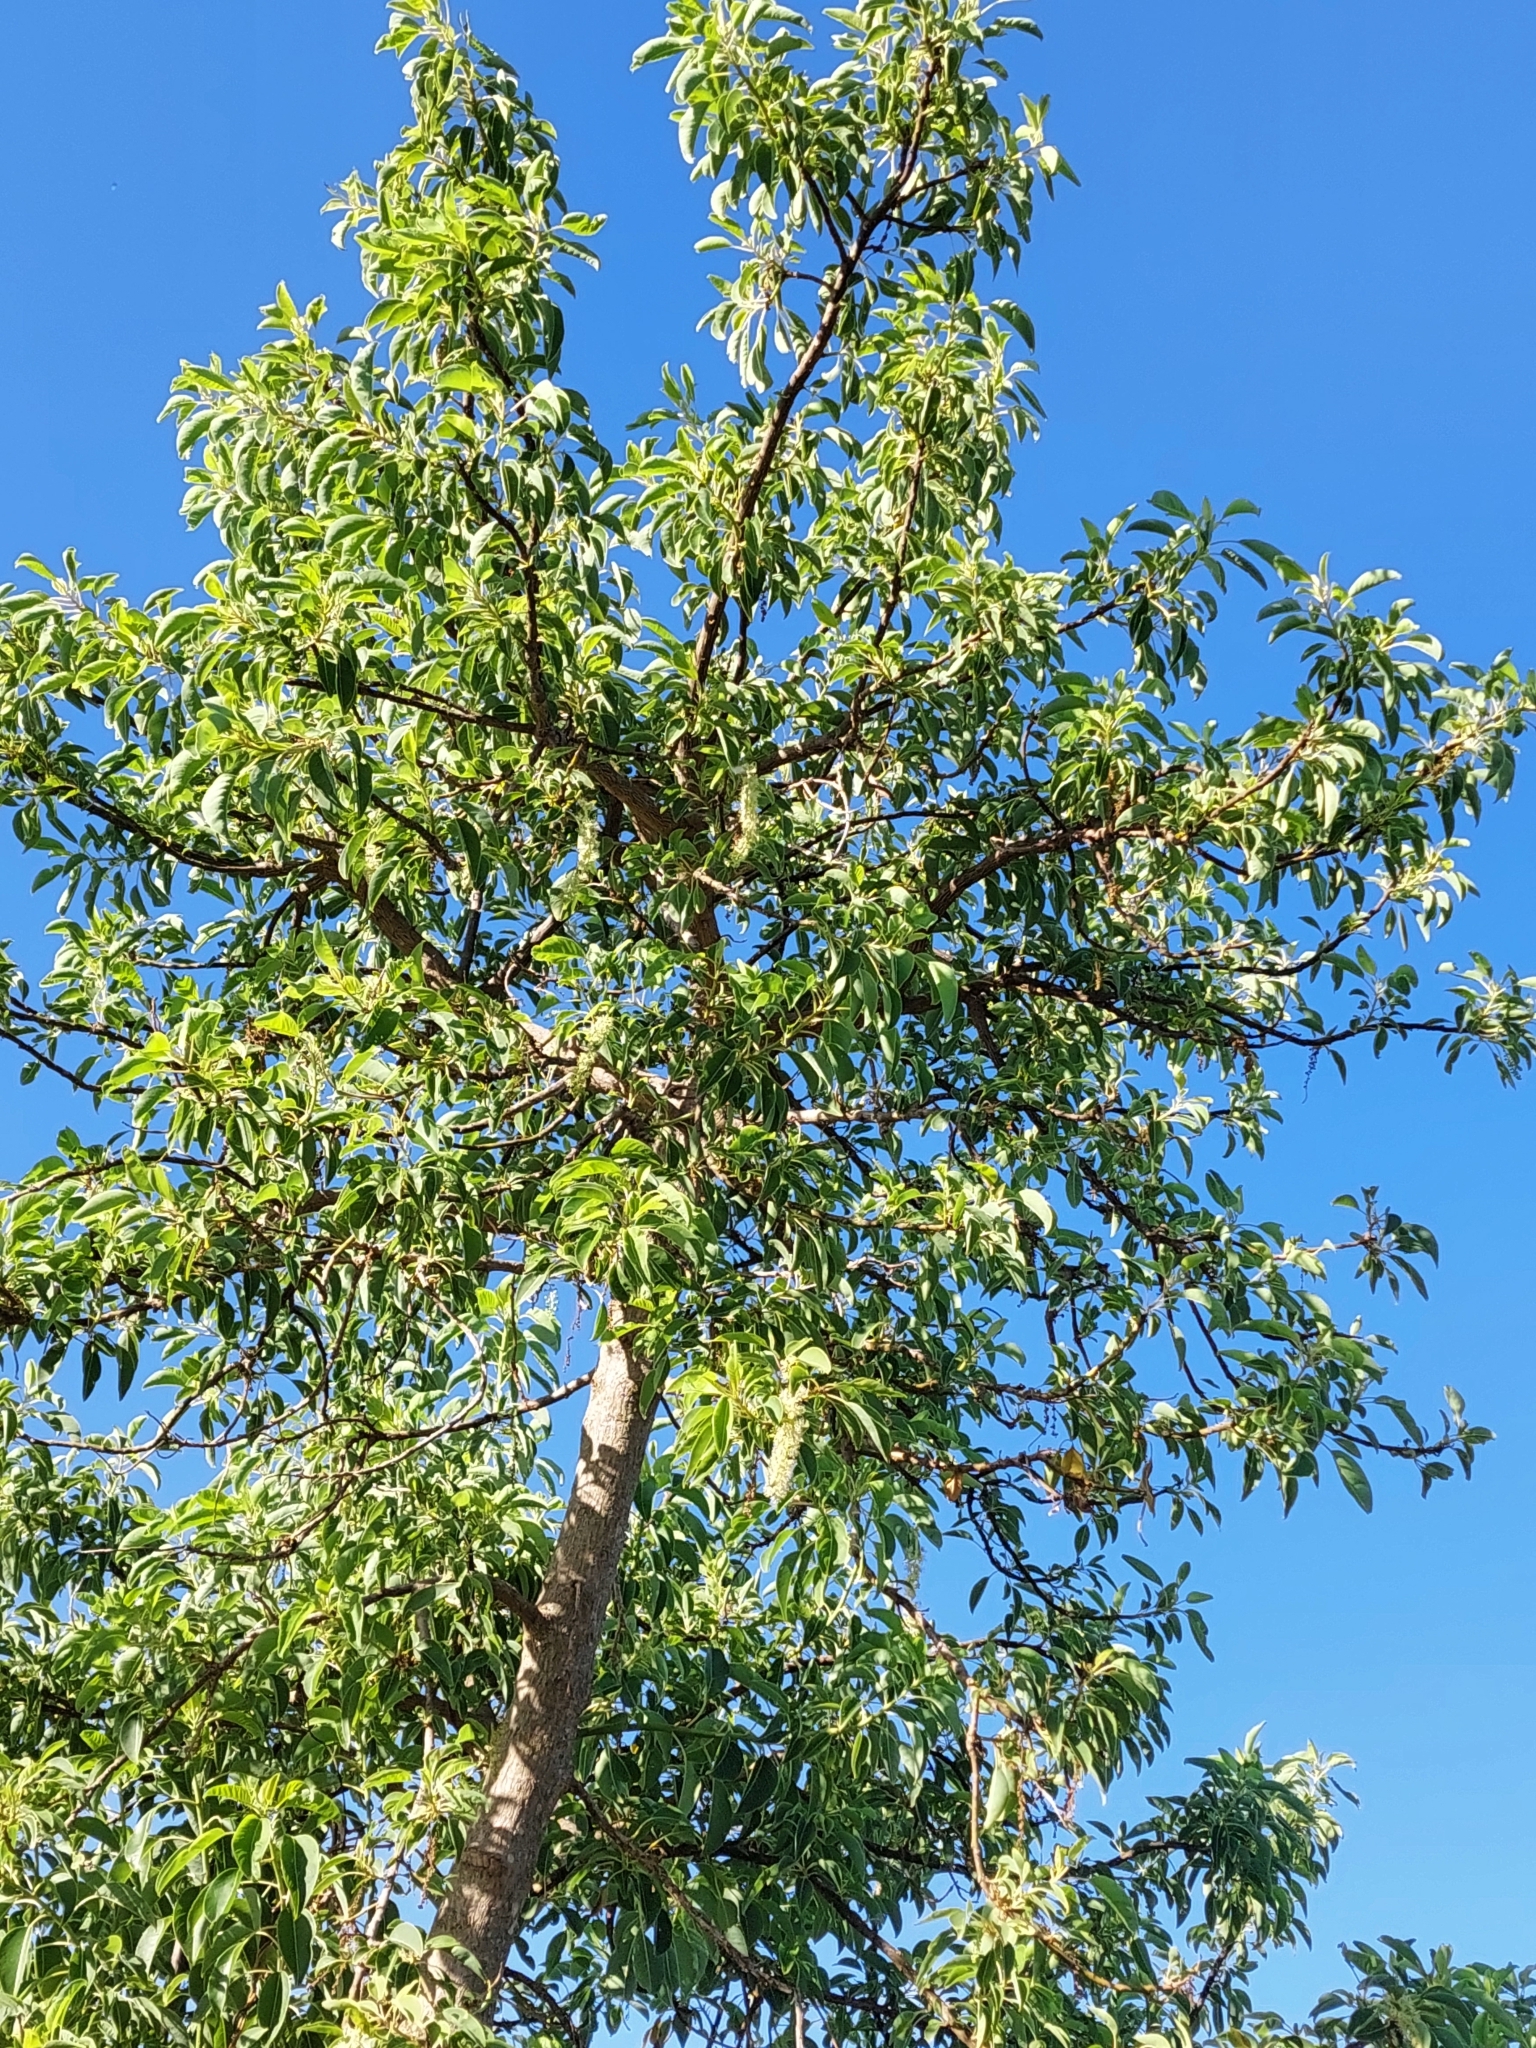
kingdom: Plantae
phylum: Tracheophyta
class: Magnoliopsida
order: Caryophyllales
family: Phytolaccaceae
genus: Phytolacca
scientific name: Phytolacca dioica
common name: Pokeweed
